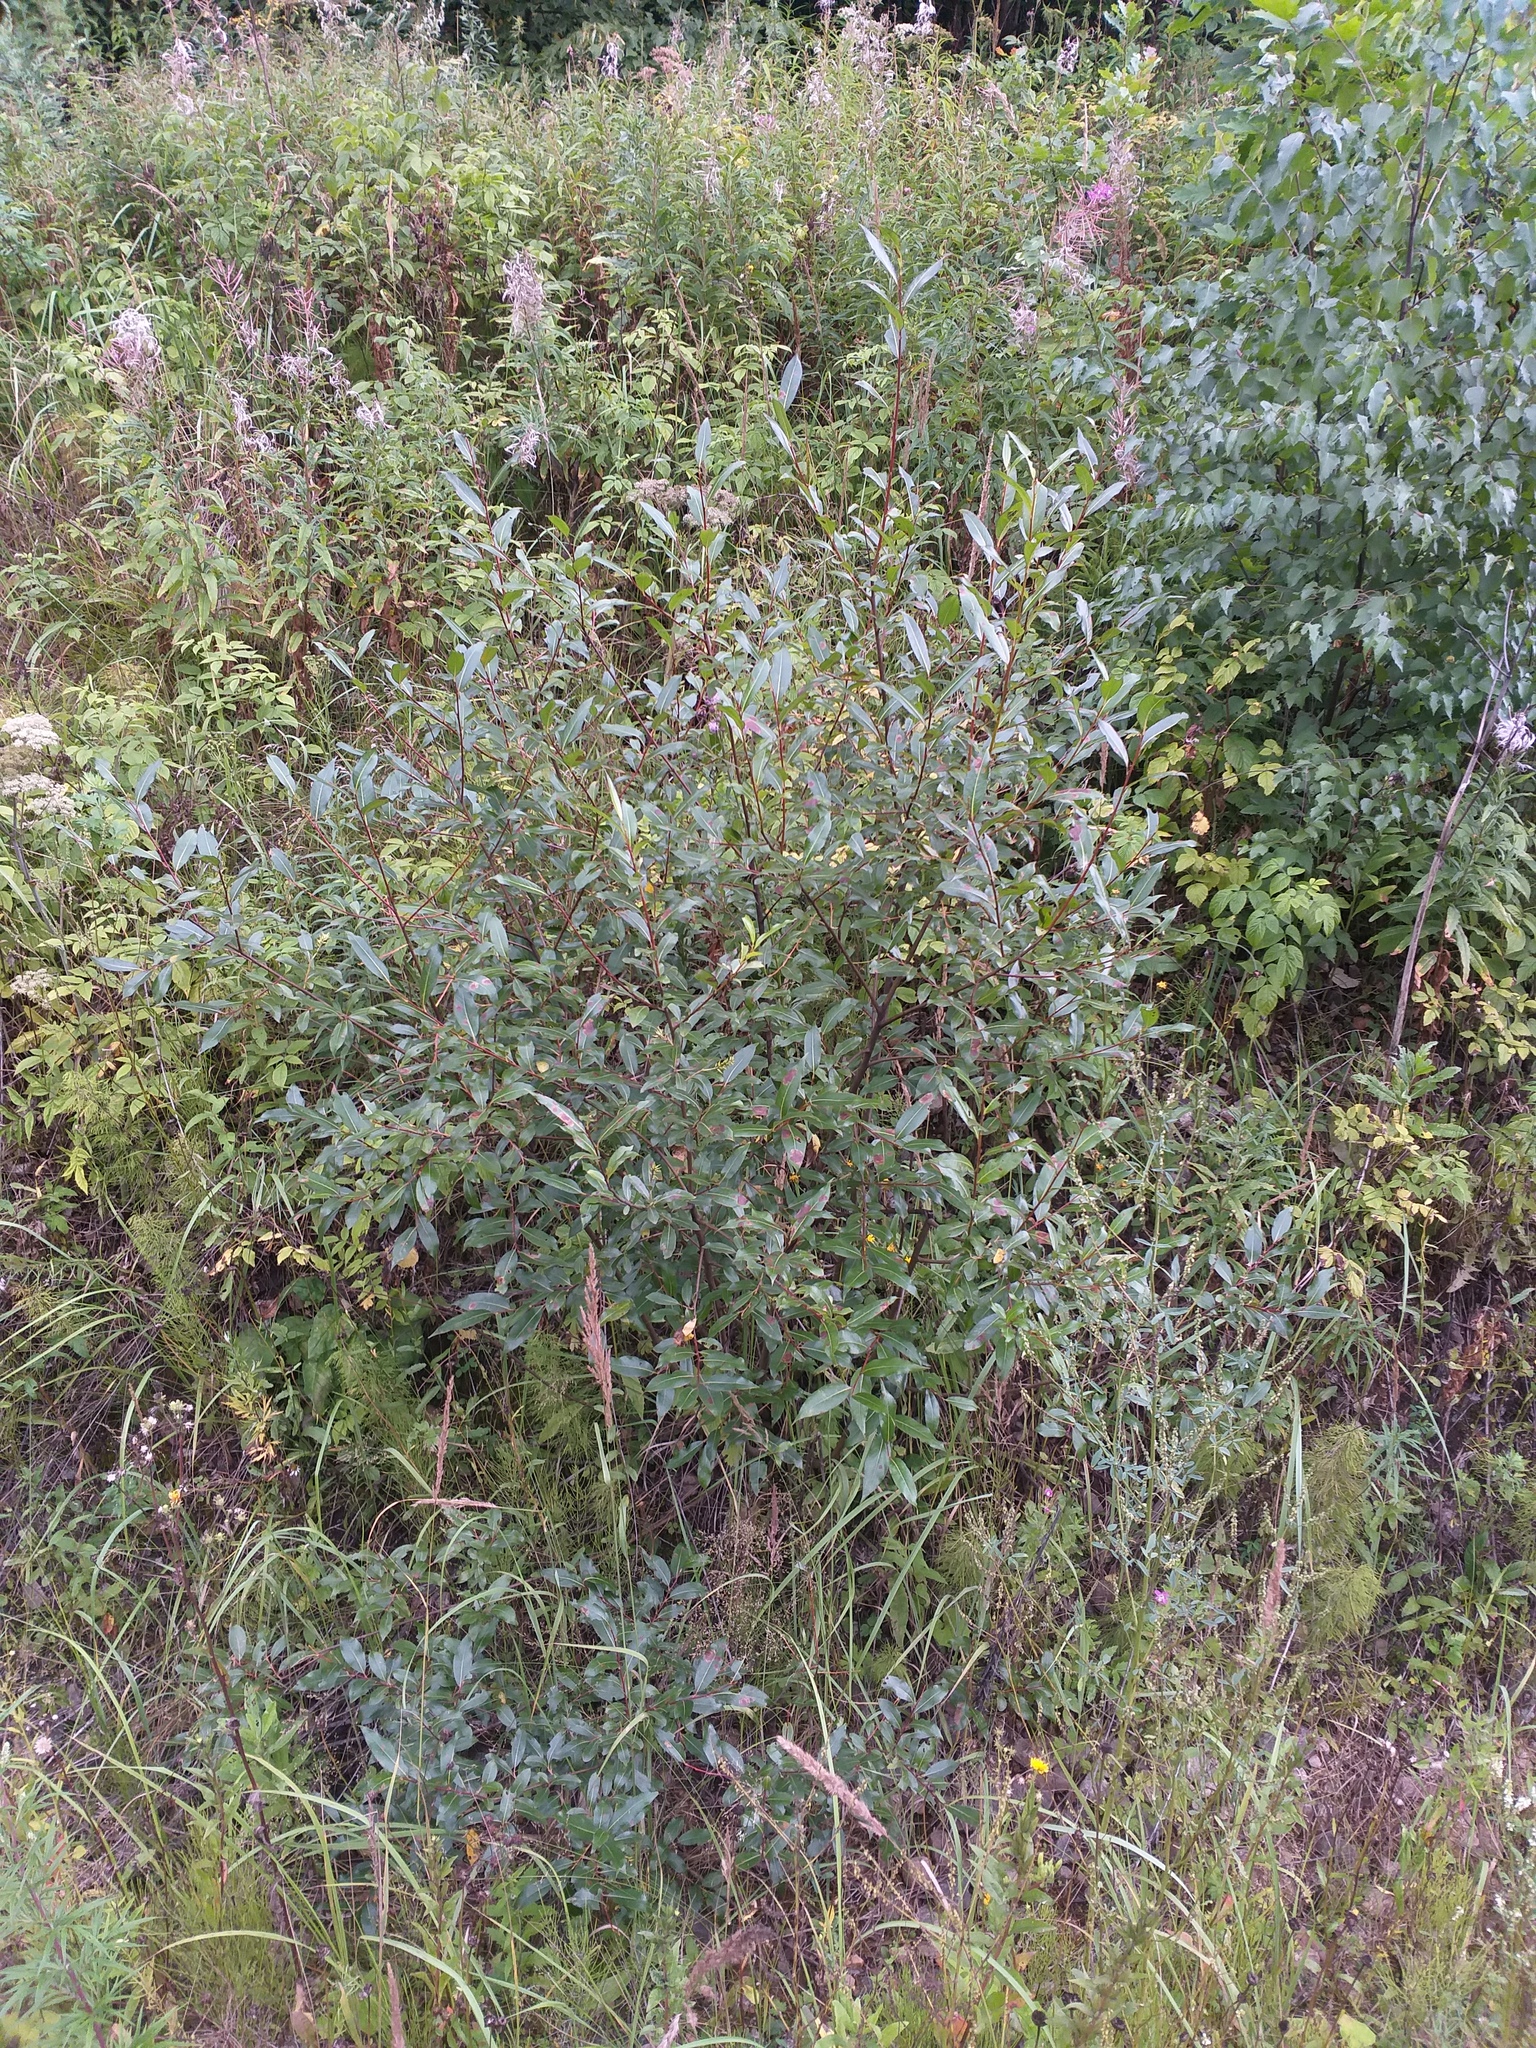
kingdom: Plantae
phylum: Tracheophyta
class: Magnoliopsida
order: Malpighiales
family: Salicaceae
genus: Salix
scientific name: Salix pentandra
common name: Bay willow
